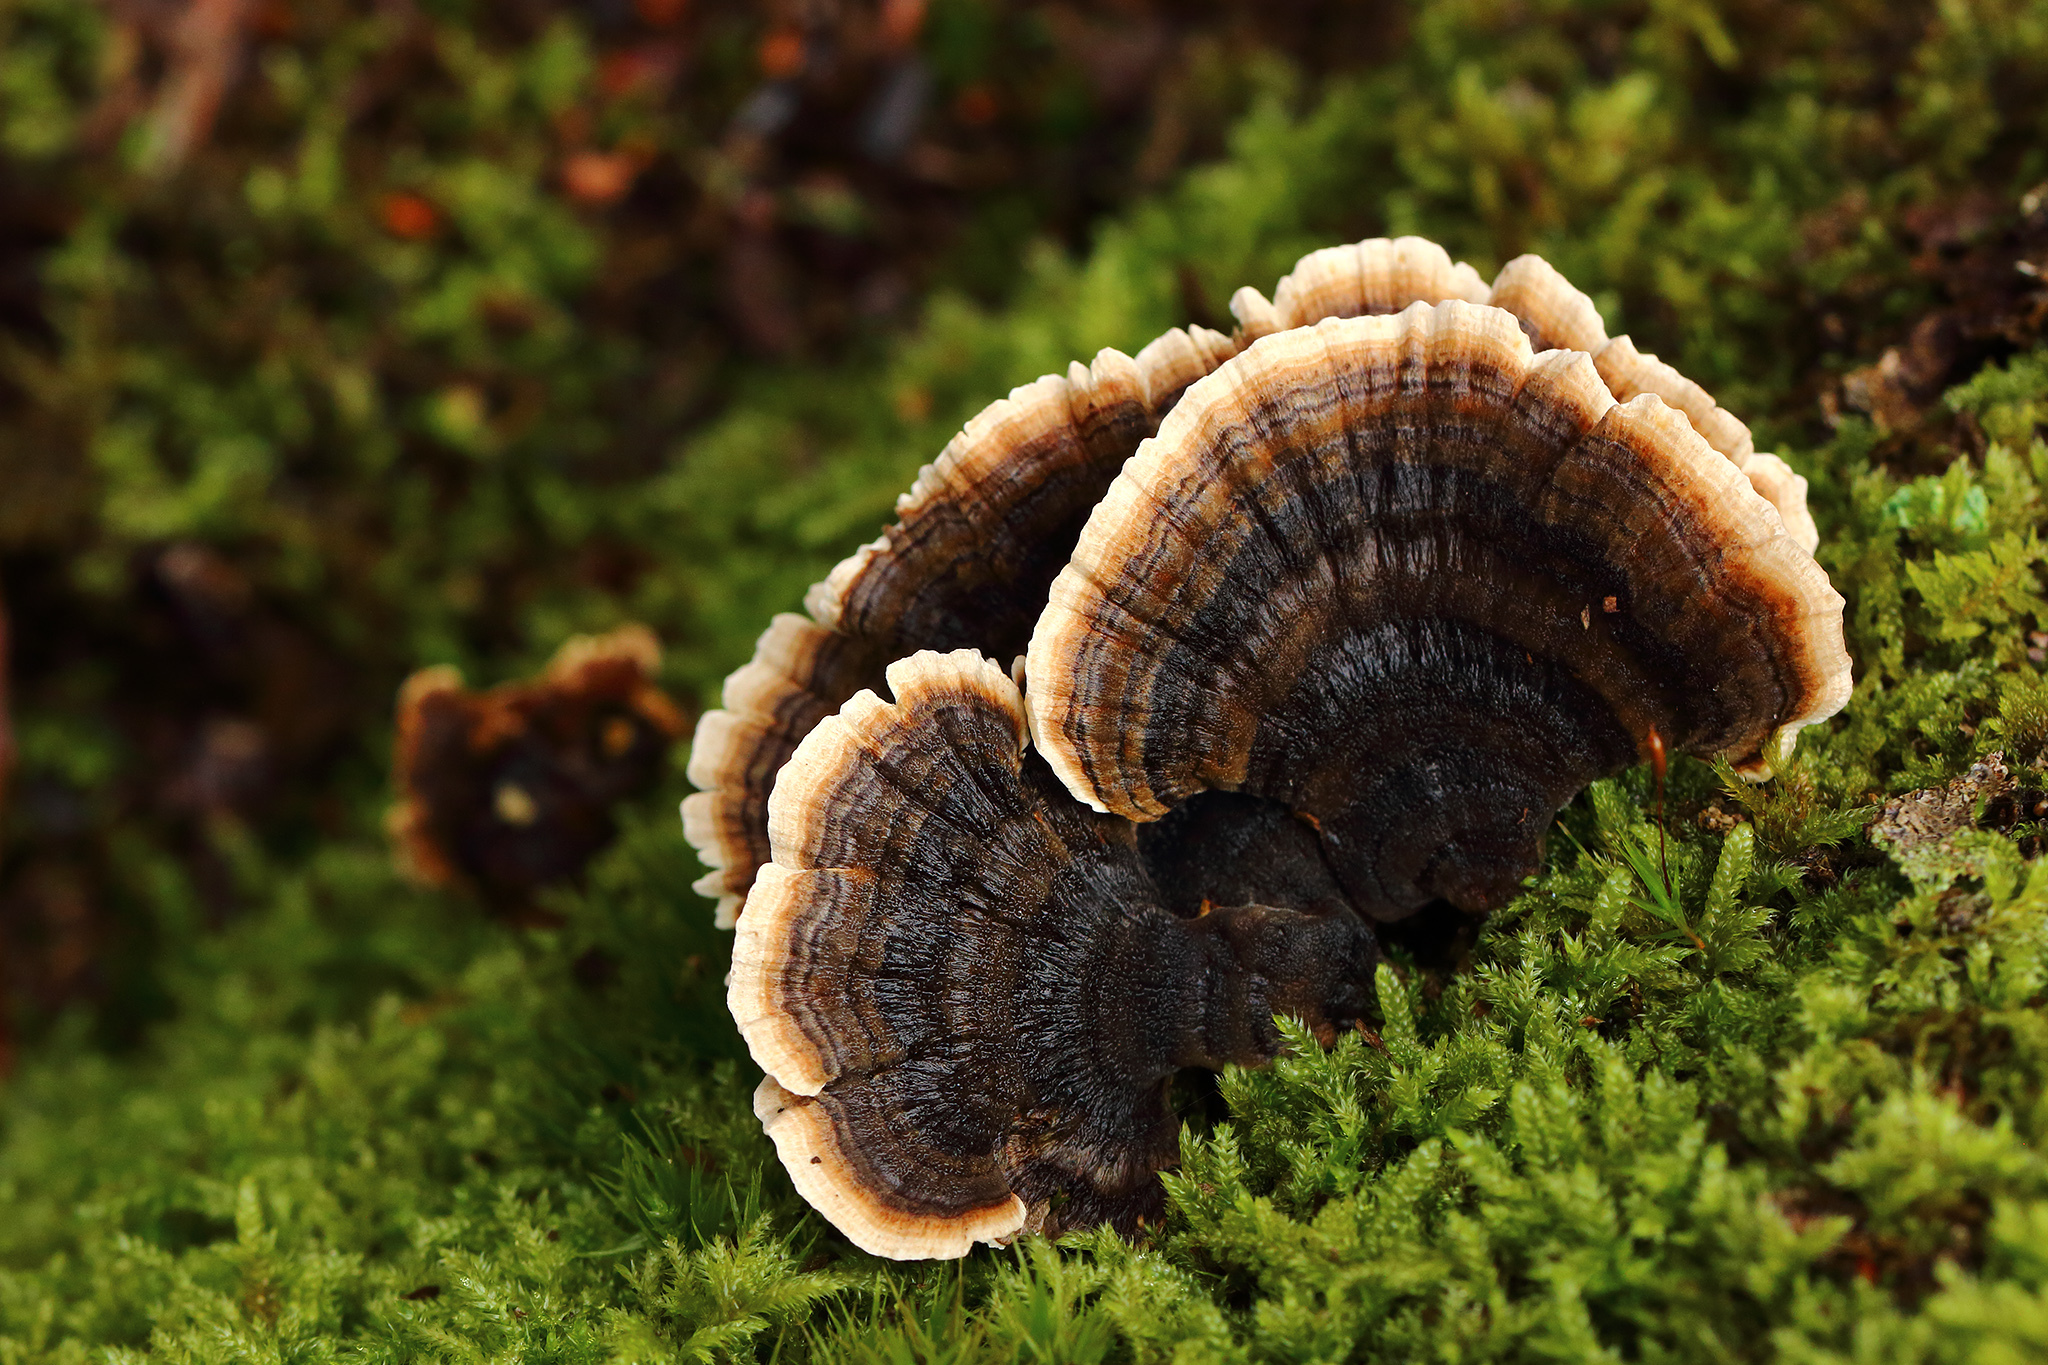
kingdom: Fungi
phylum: Basidiomycota
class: Agaricomycetes
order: Polyporales
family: Polyporaceae
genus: Trametes
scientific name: Trametes versicolor
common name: Turkeytail
